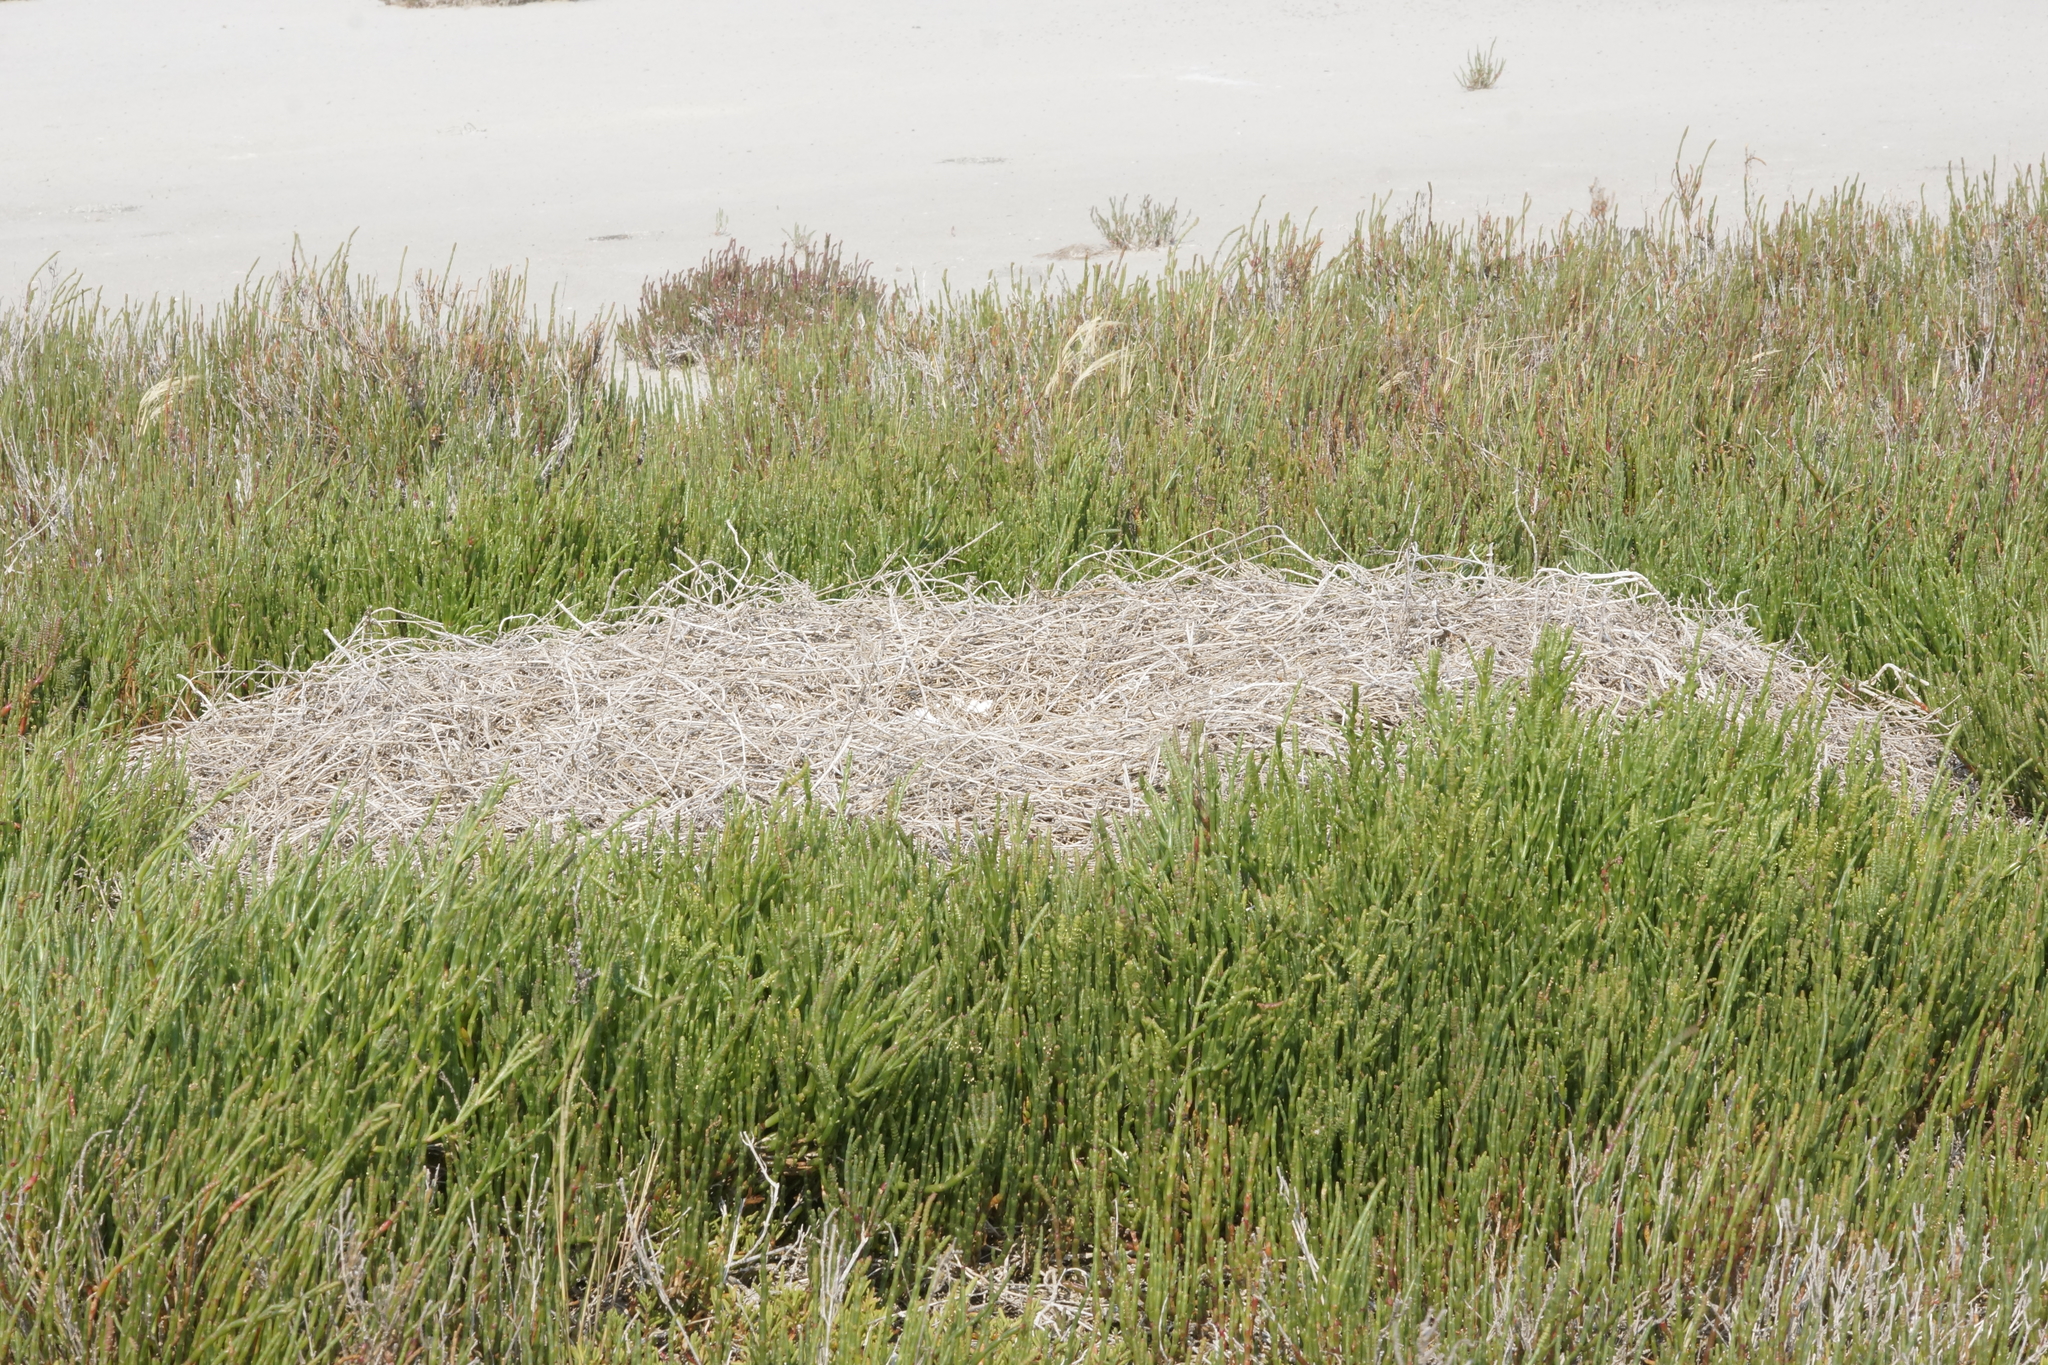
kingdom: Animalia
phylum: Chordata
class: Aves
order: Anseriformes
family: Anatidae
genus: Cygnus
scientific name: Cygnus atratus
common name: Black swan
